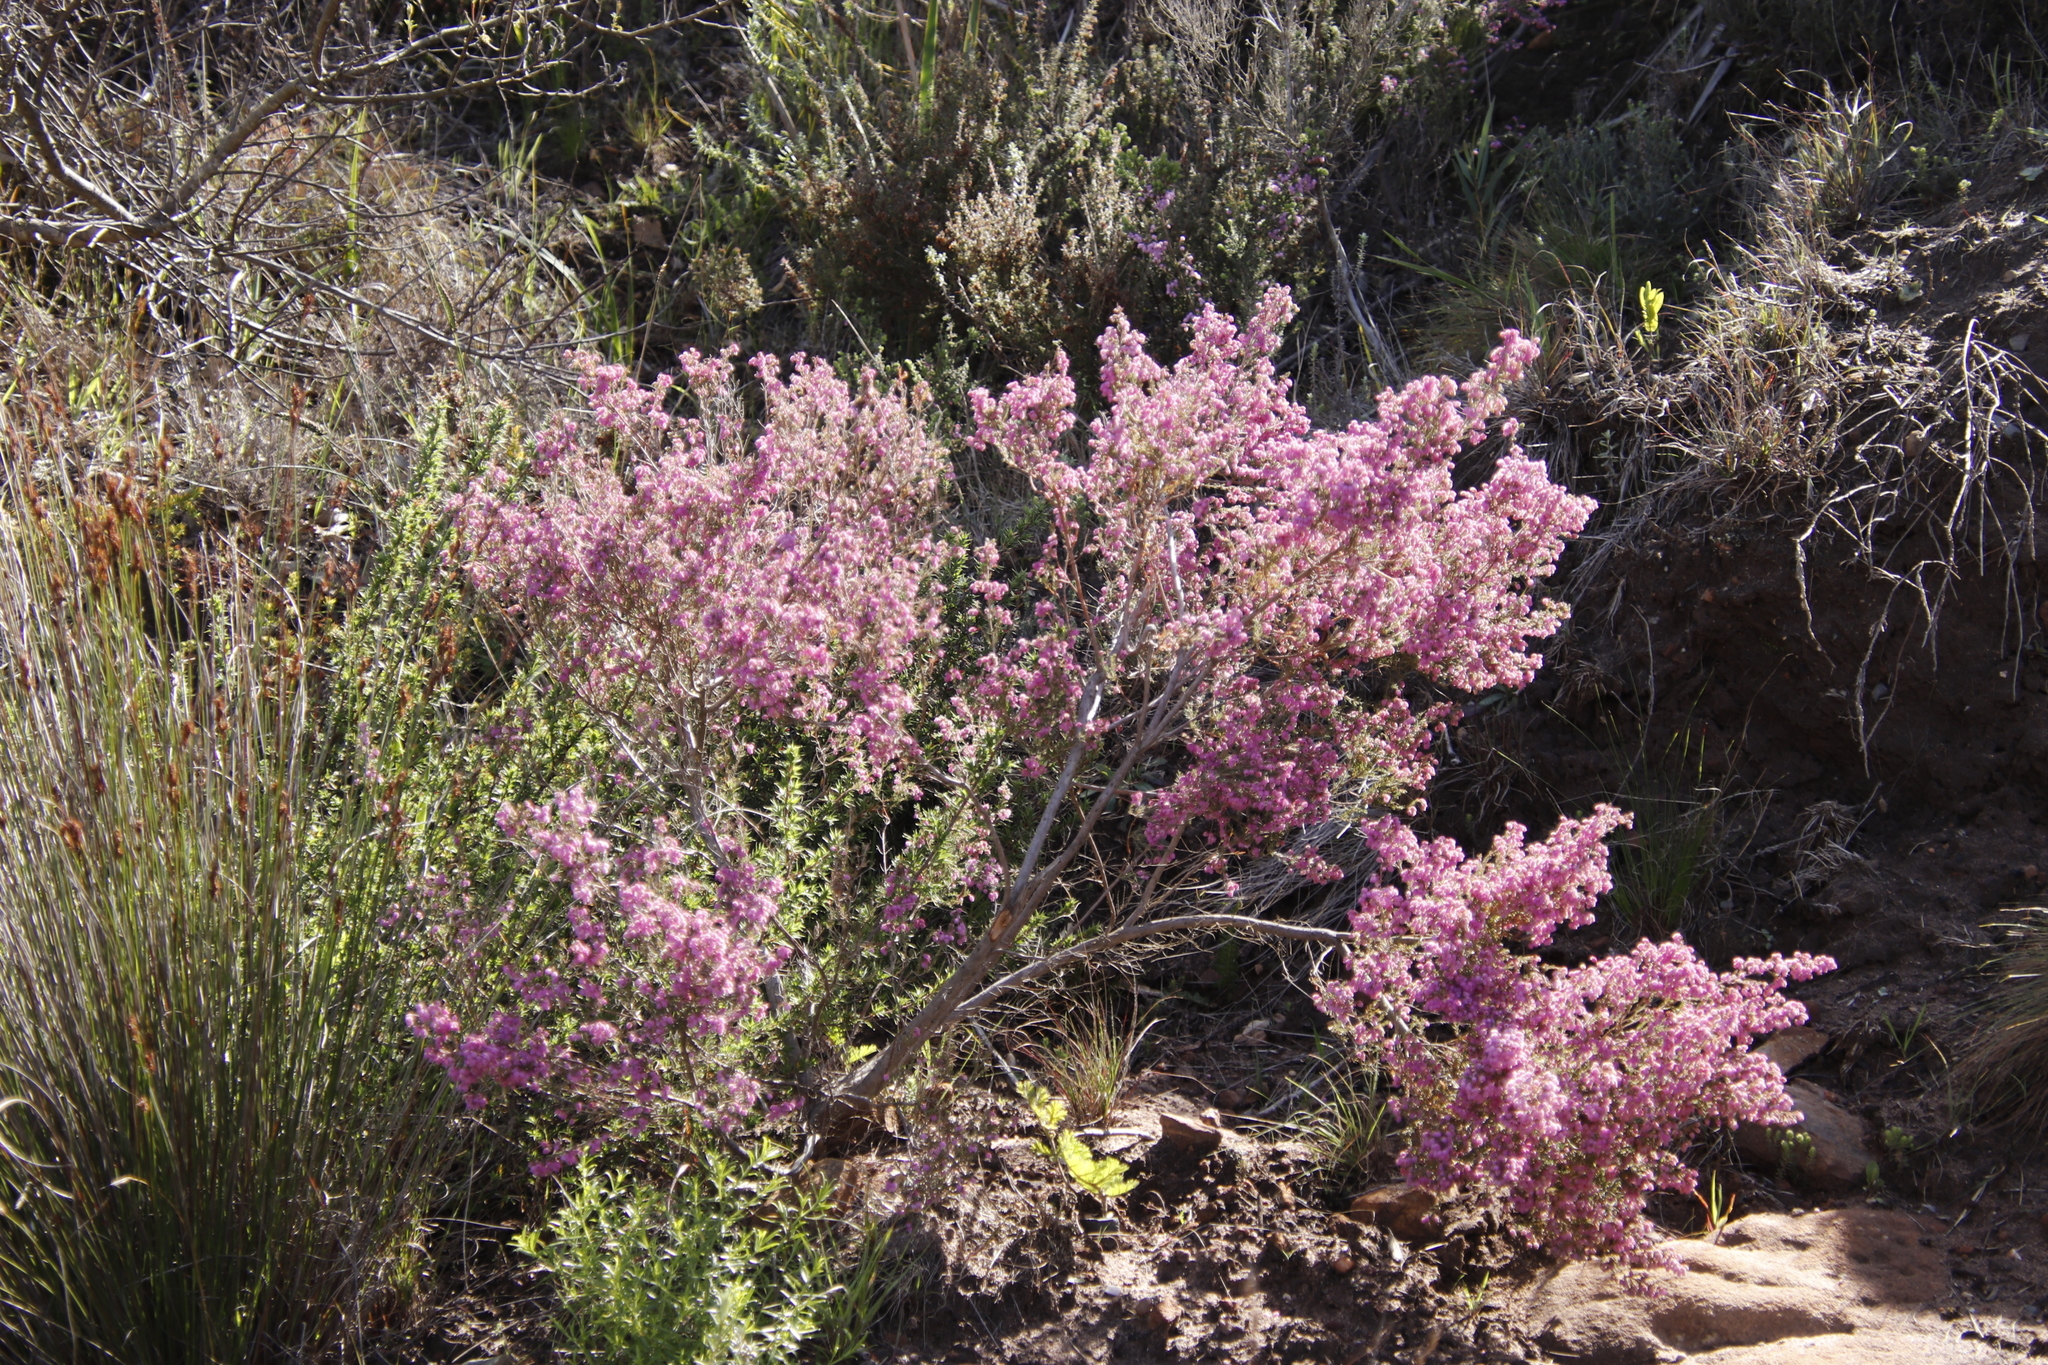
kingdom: Plantae
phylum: Tracheophyta
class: Magnoliopsida
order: Ericales
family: Ericaceae
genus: Erica
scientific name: Erica hirtiflora
